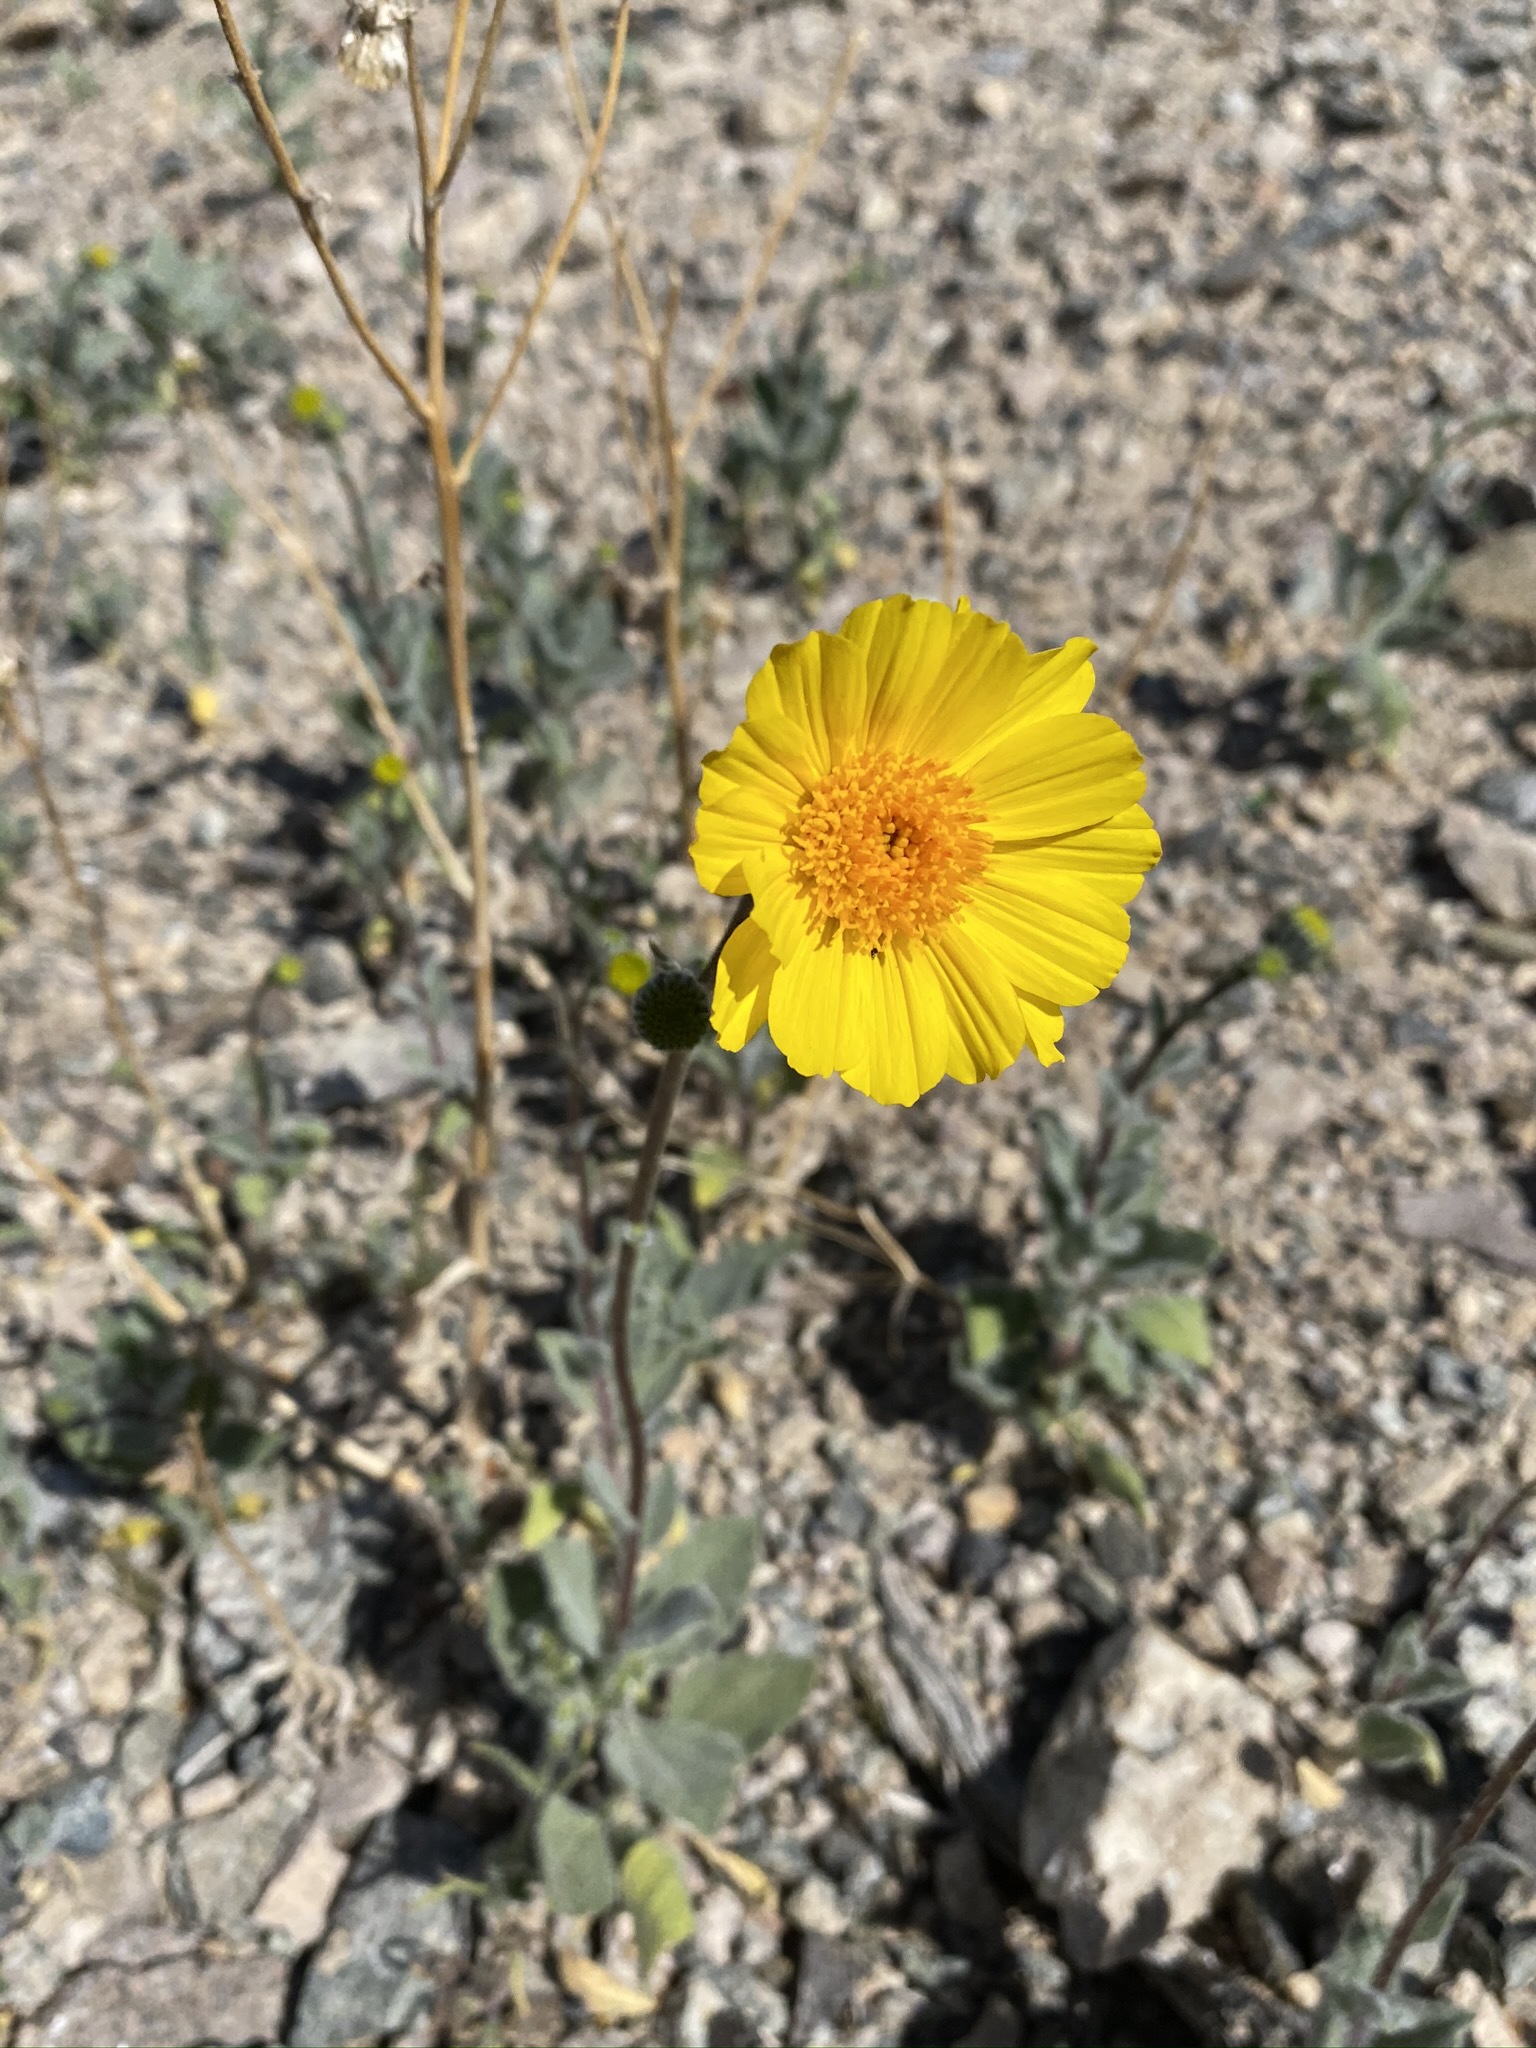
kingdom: Plantae
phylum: Tracheophyta
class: Magnoliopsida
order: Asterales
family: Asteraceae
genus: Geraea
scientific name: Geraea canescens
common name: Desert-gold
